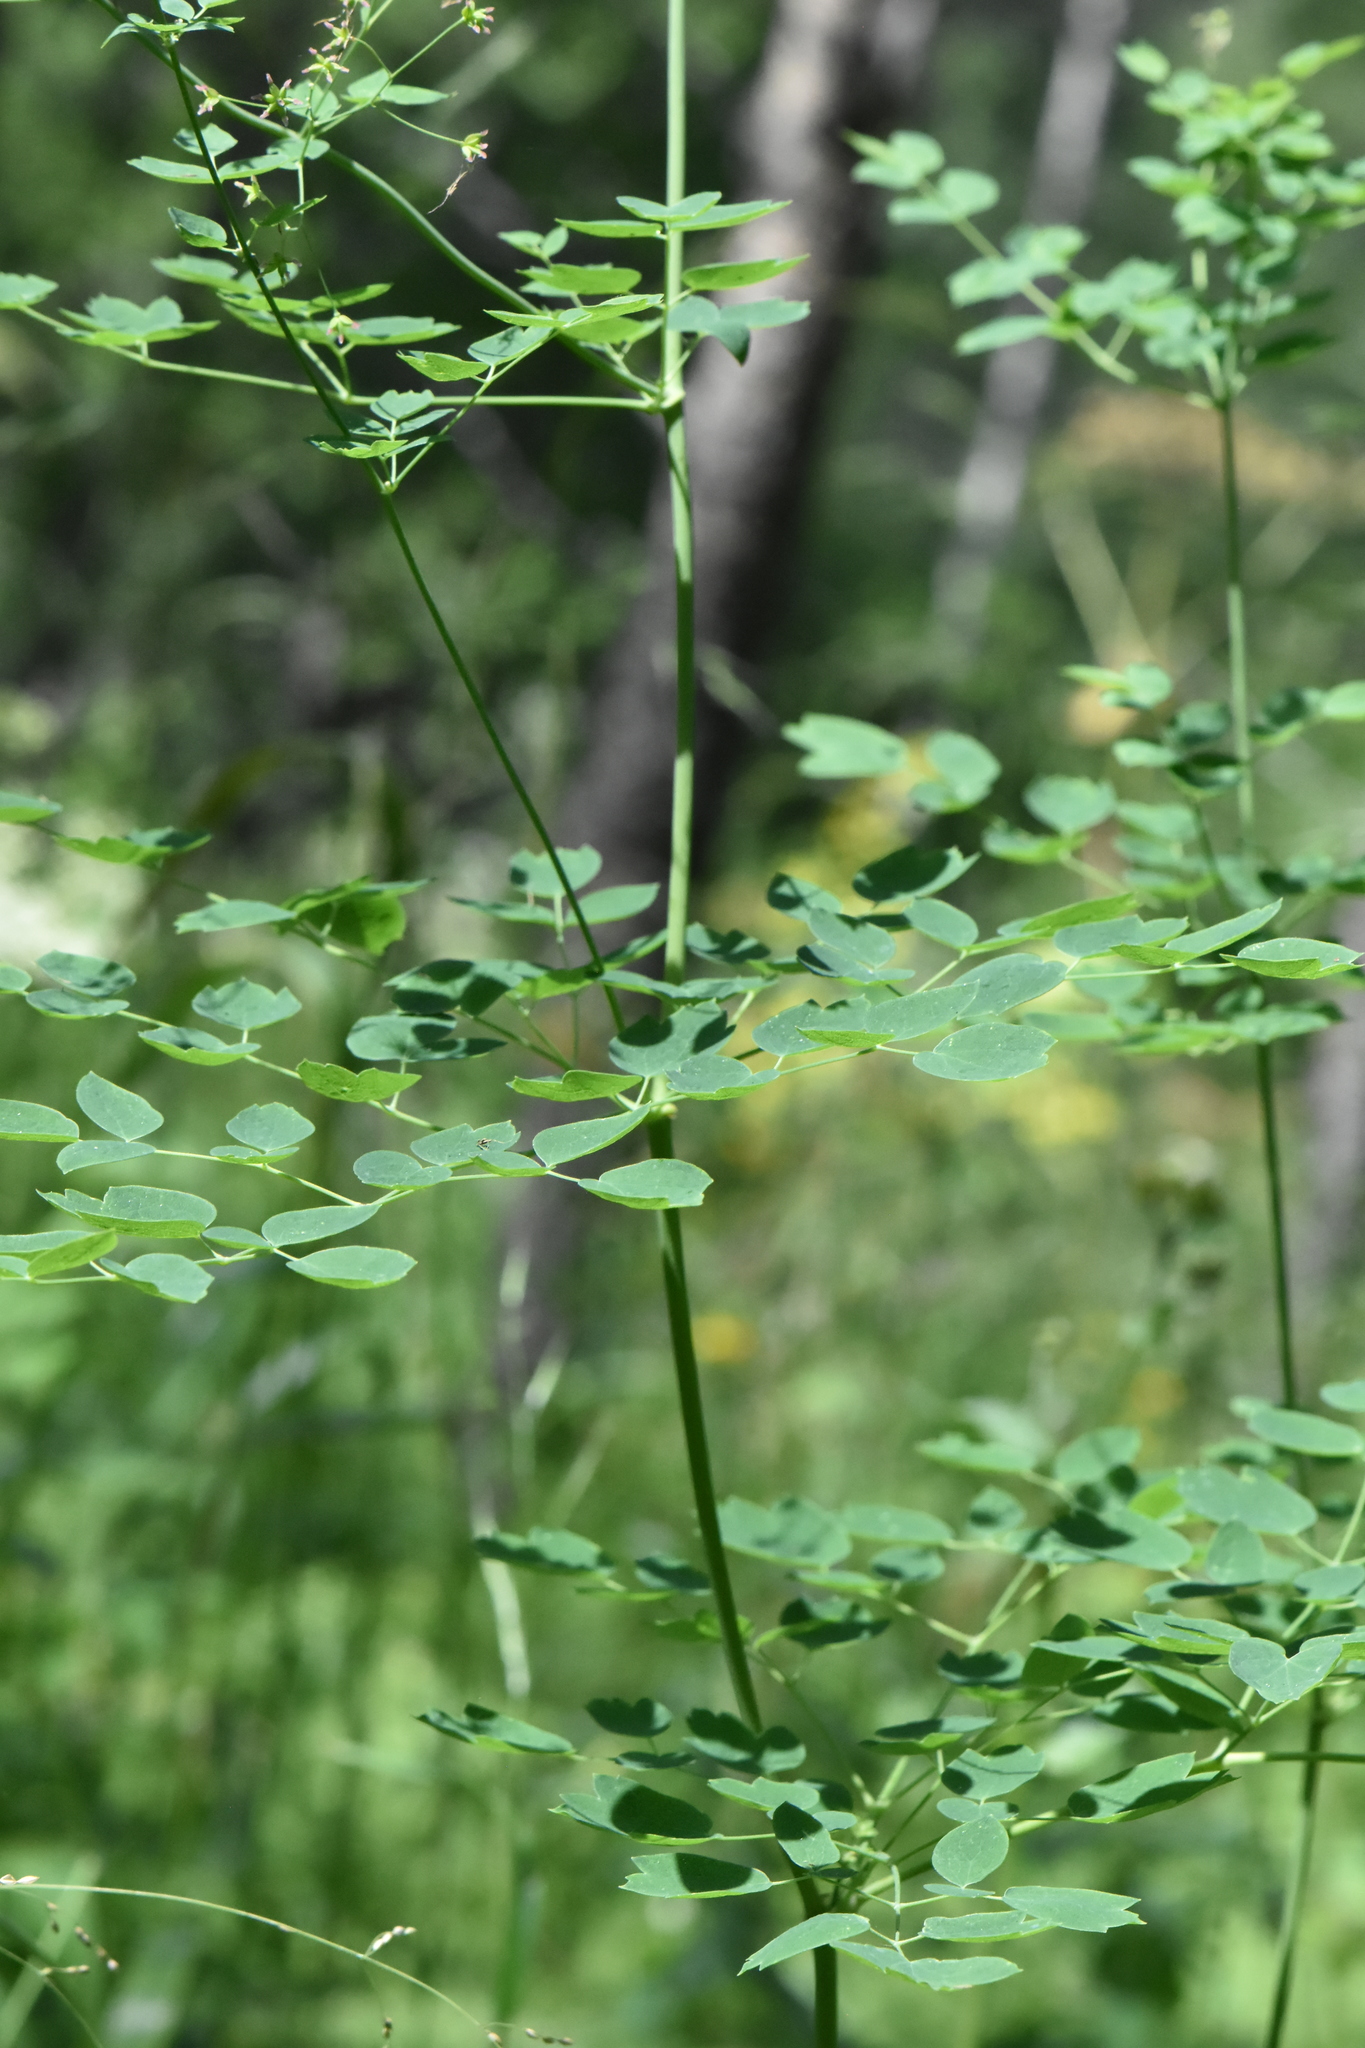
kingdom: Plantae
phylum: Tracheophyta
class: Magnoliopsida
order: Ranunculales
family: Ranunculaceae
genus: Thalictrum
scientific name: Thalictrum minus
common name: Lesser meadow-rue
